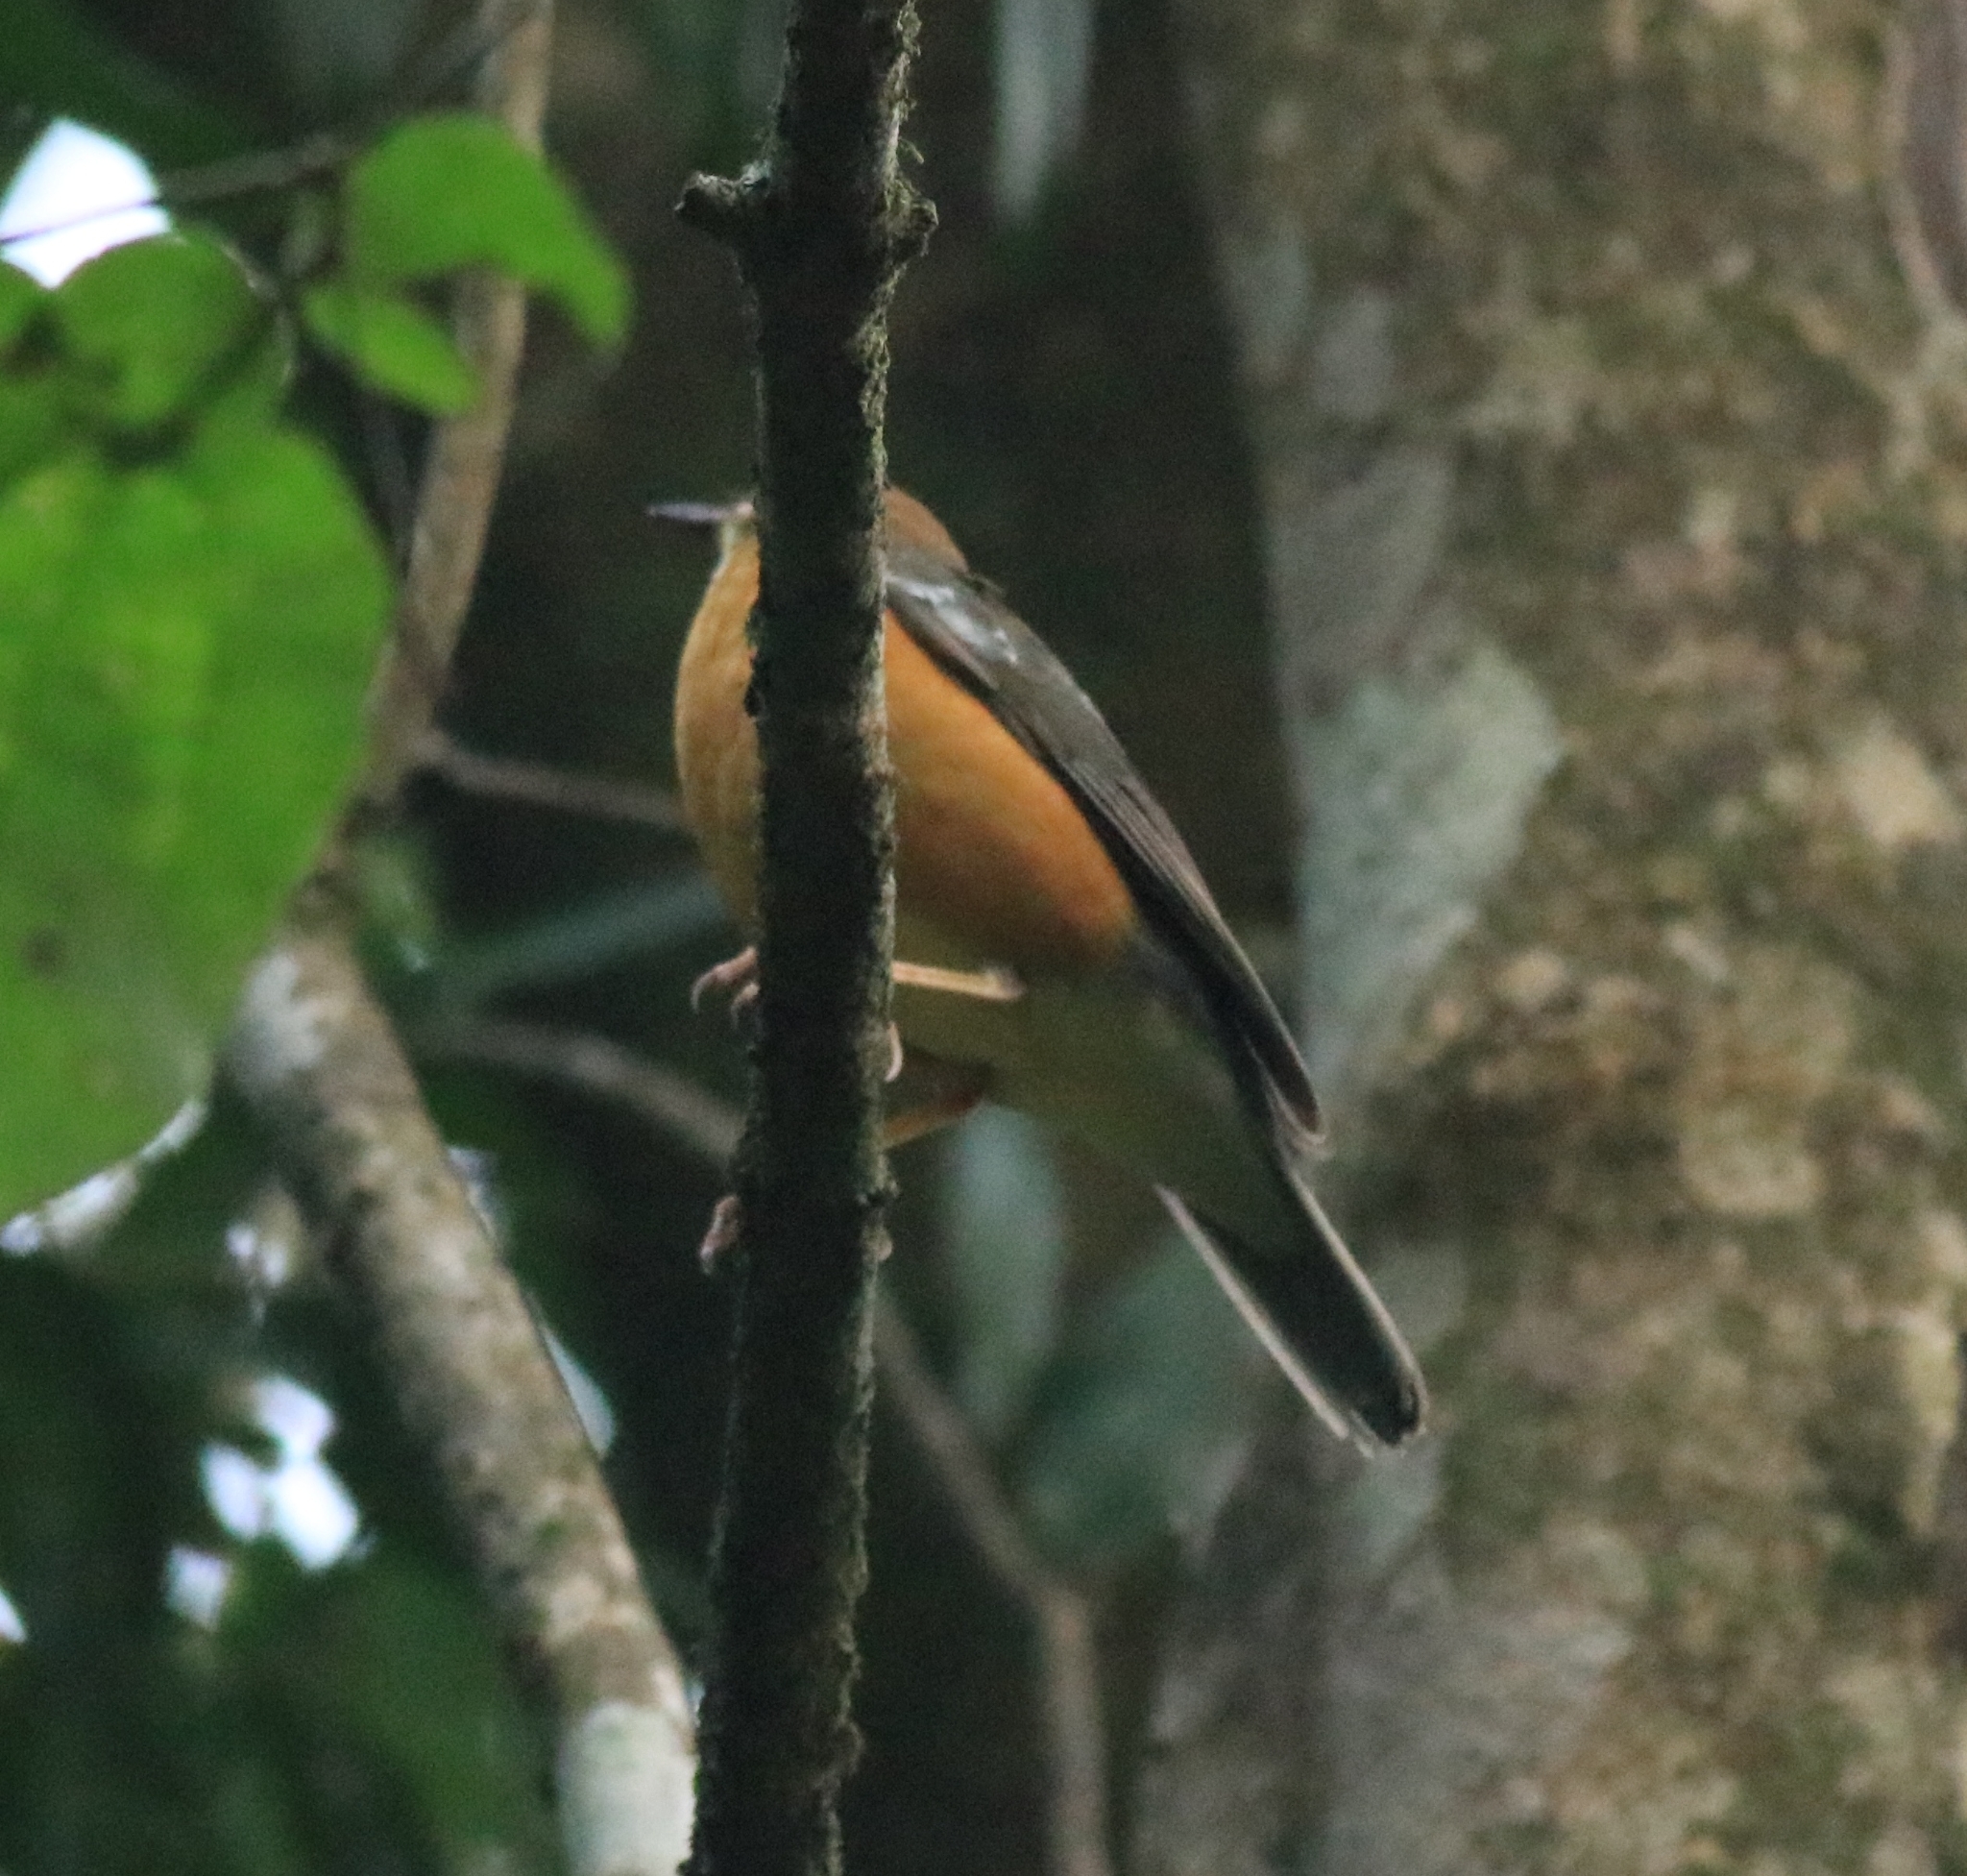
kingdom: Animalia
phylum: Chordata
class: Aves
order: Passeriformes
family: Turdidae
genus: Geokichla
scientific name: Geokichla citrina
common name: Orange-headed thrush
